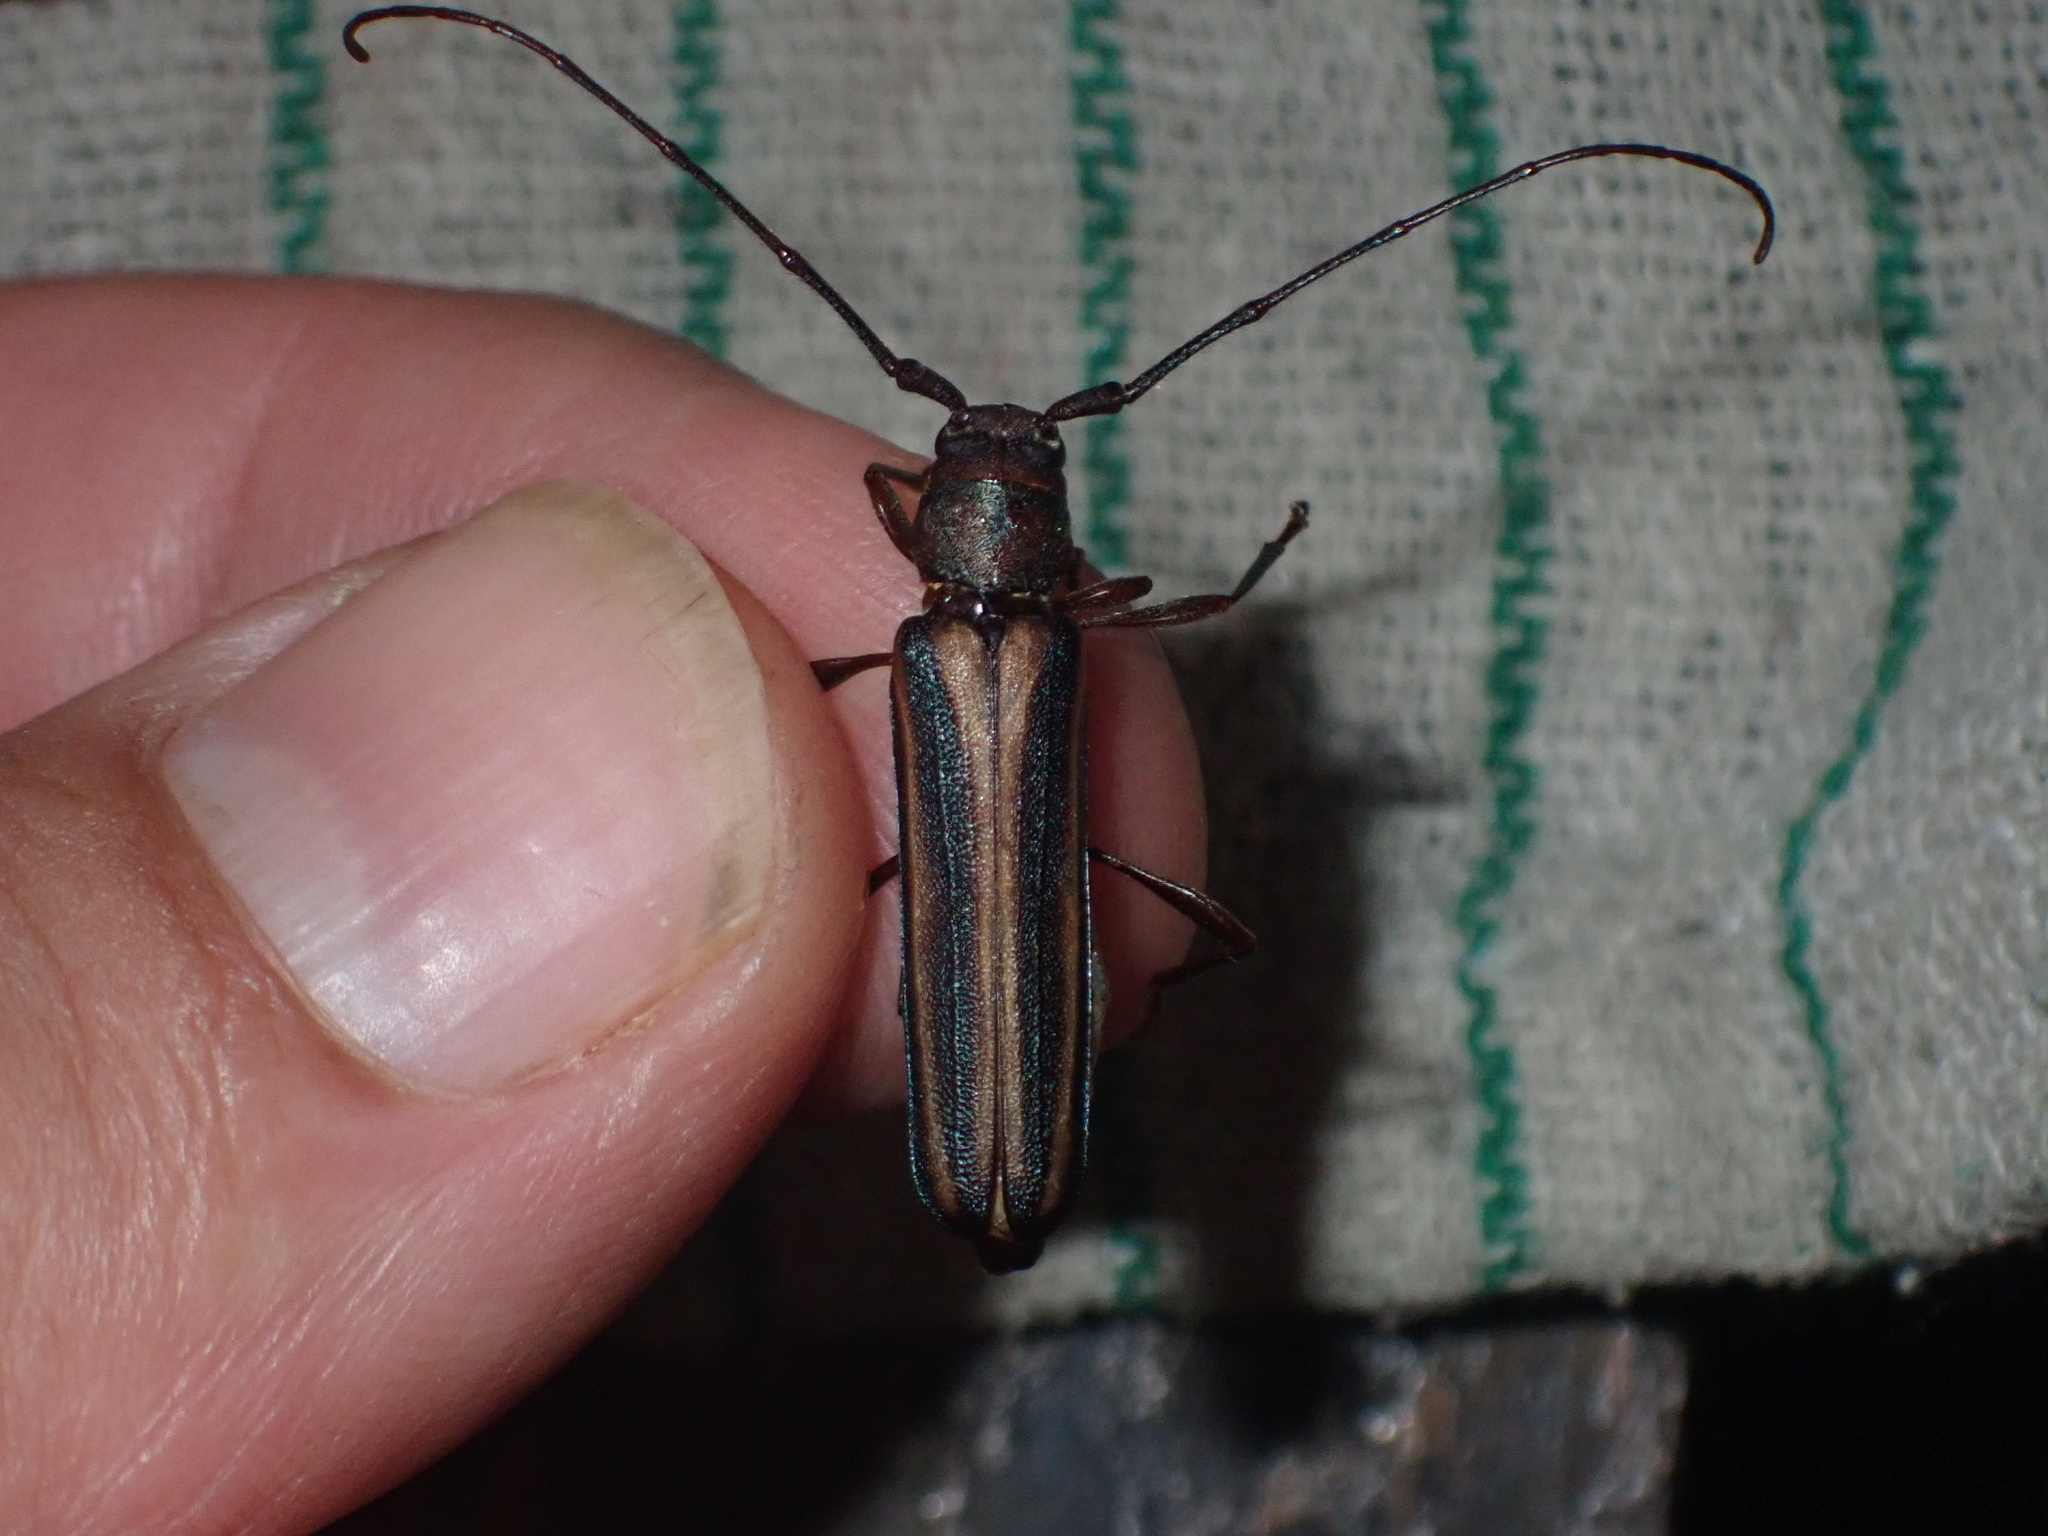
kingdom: Animalia
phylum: Arthropoda
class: Insecta
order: Coleoptera
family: Cerambycidae
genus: Xystrocera
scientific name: Xystrocera dispar
